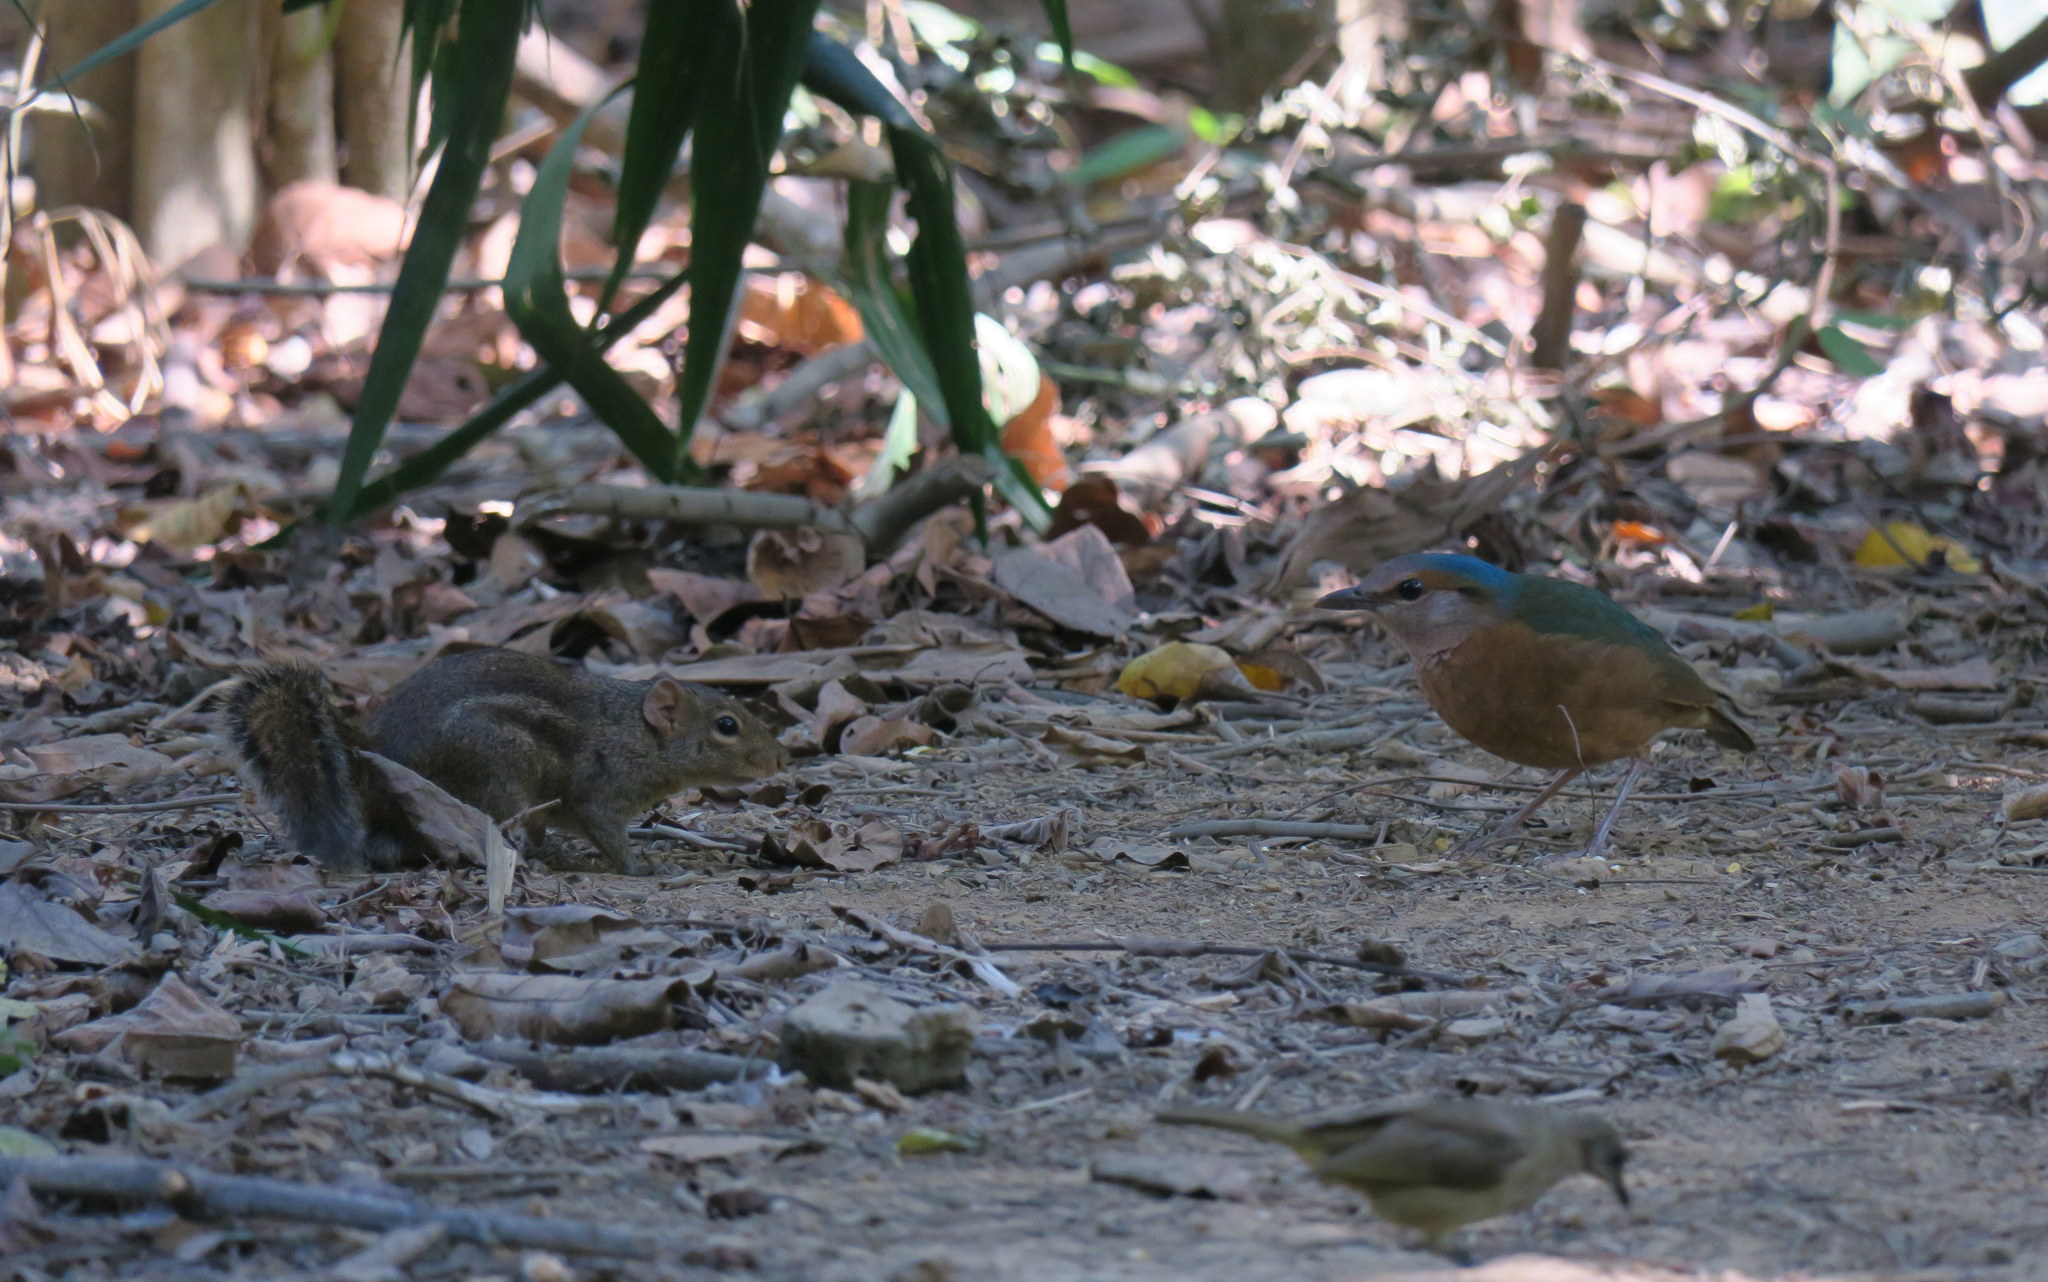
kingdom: Animalia
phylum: Chordata
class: Mammalia
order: Rodentia
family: Sciuridae
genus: Menetes
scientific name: Menetes berdmorei
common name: Indochinese ground squirrel
